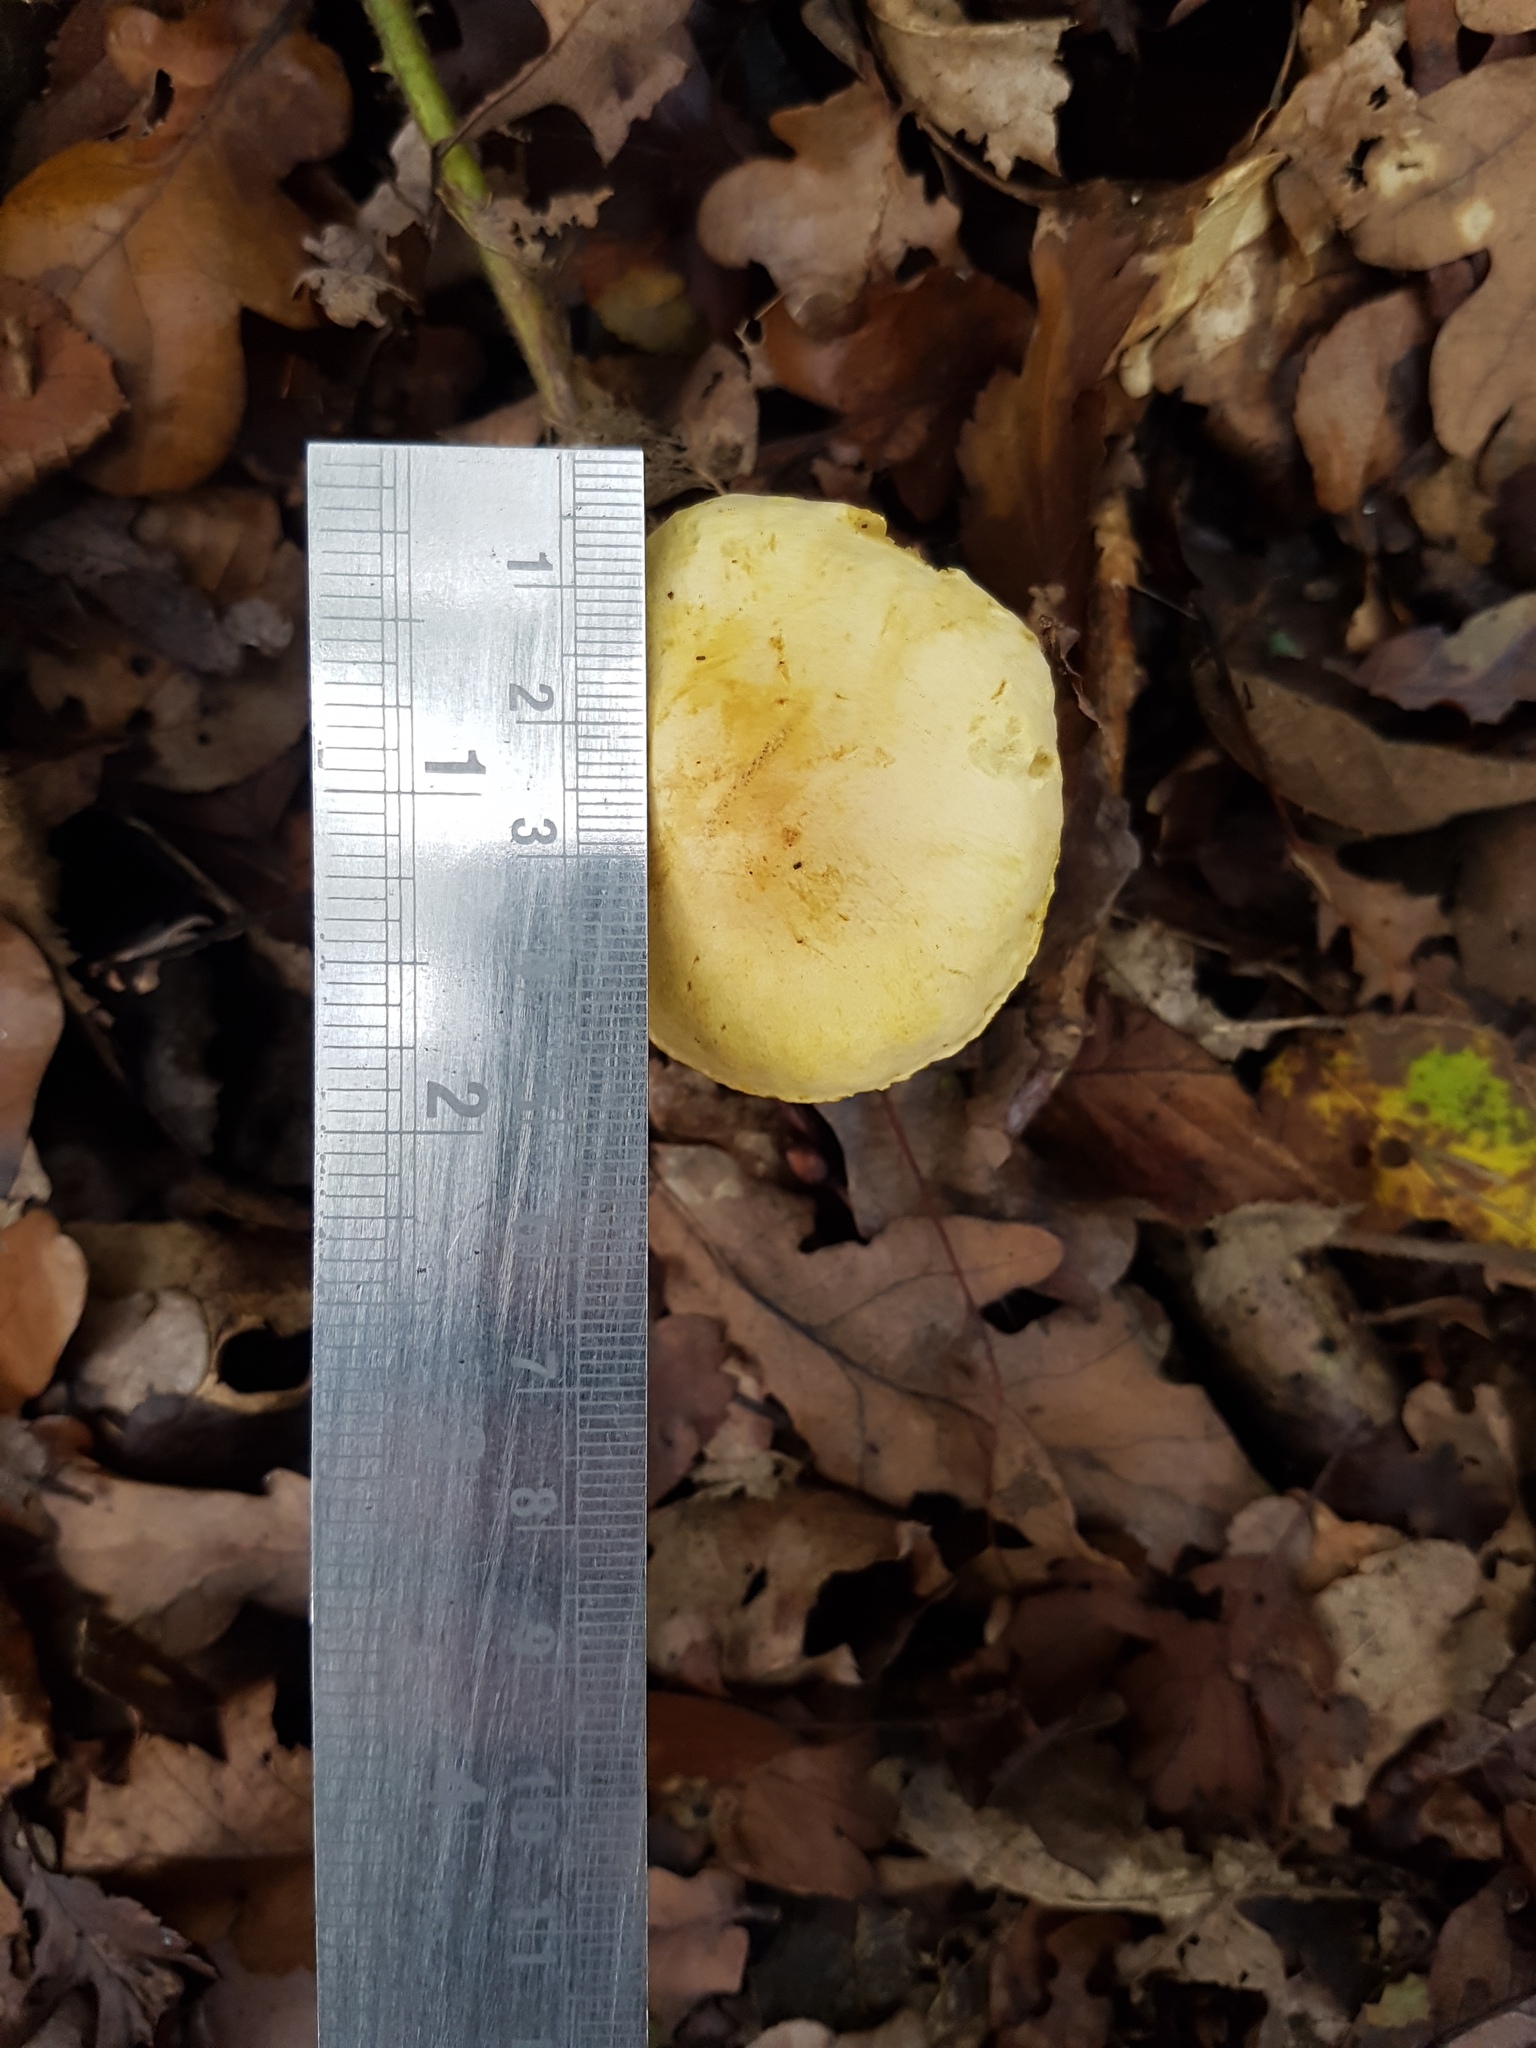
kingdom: Fungi
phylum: Basidiomycota
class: Agaricomycetes
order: Agaricales
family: Tricholomataceae
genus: Tricholoma
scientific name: Tricholoma sulphureum
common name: Stinky knight
